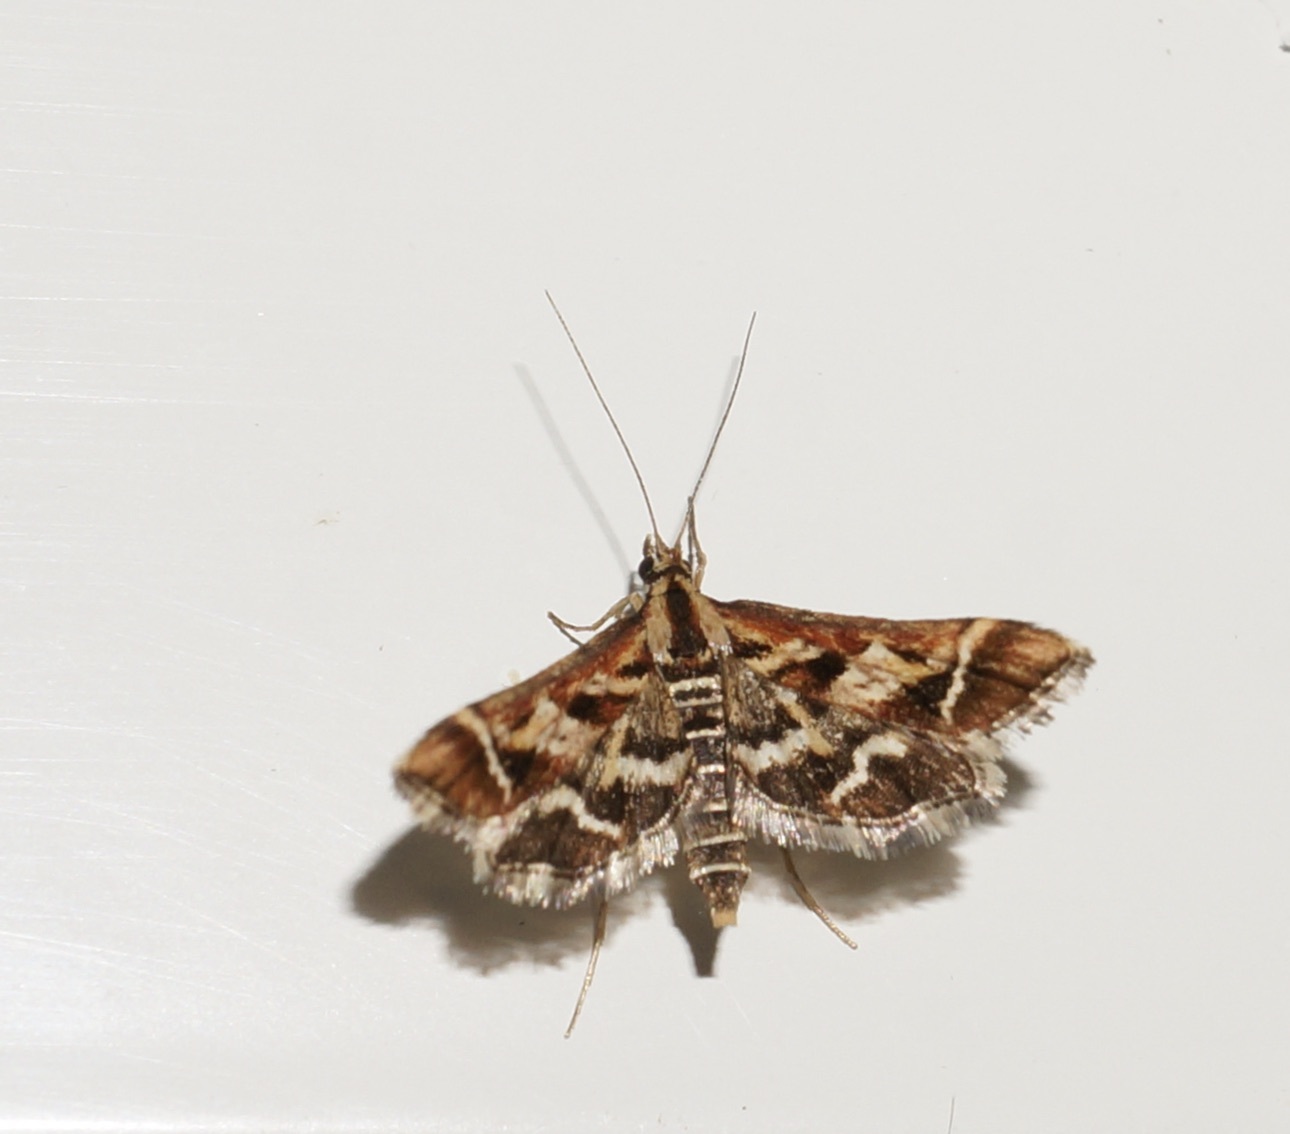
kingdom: Animalia
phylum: Arthropoda
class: Insecta
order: Lepidoptera
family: Crambidae
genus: Diasemia
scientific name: Diasemia grammalis
